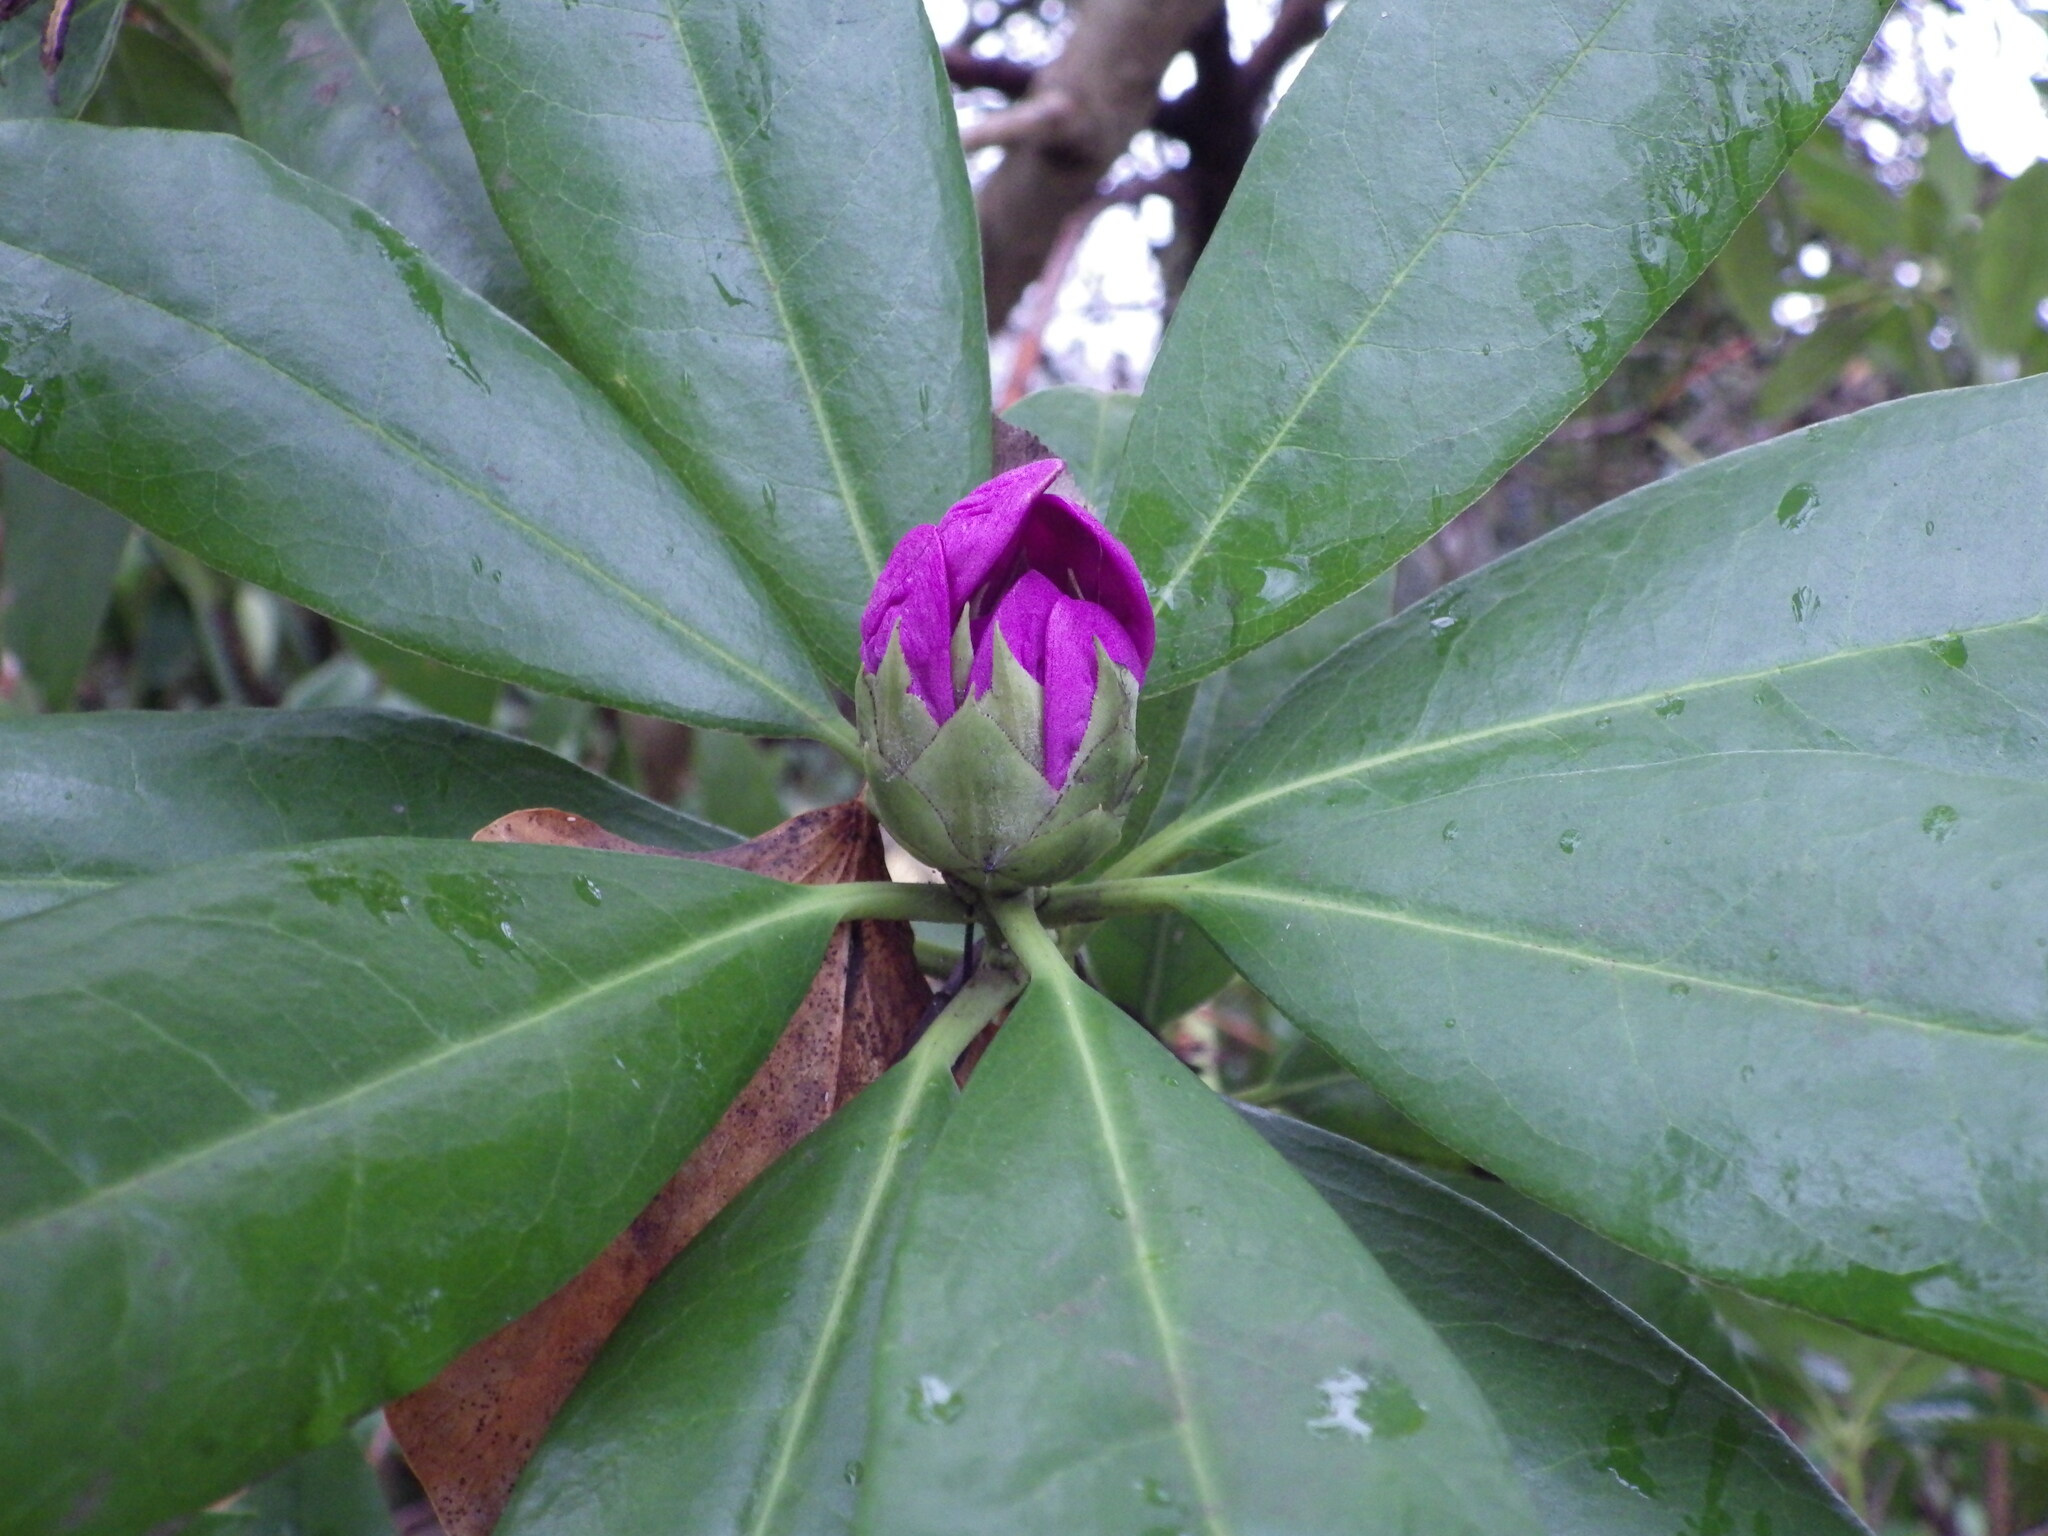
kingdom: Plantae
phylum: Tracheophyta
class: Magnoliopsida
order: Ericales
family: Ericaceae
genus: Rhododendron
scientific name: Rhododendron ponticum
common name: Rhododendron
